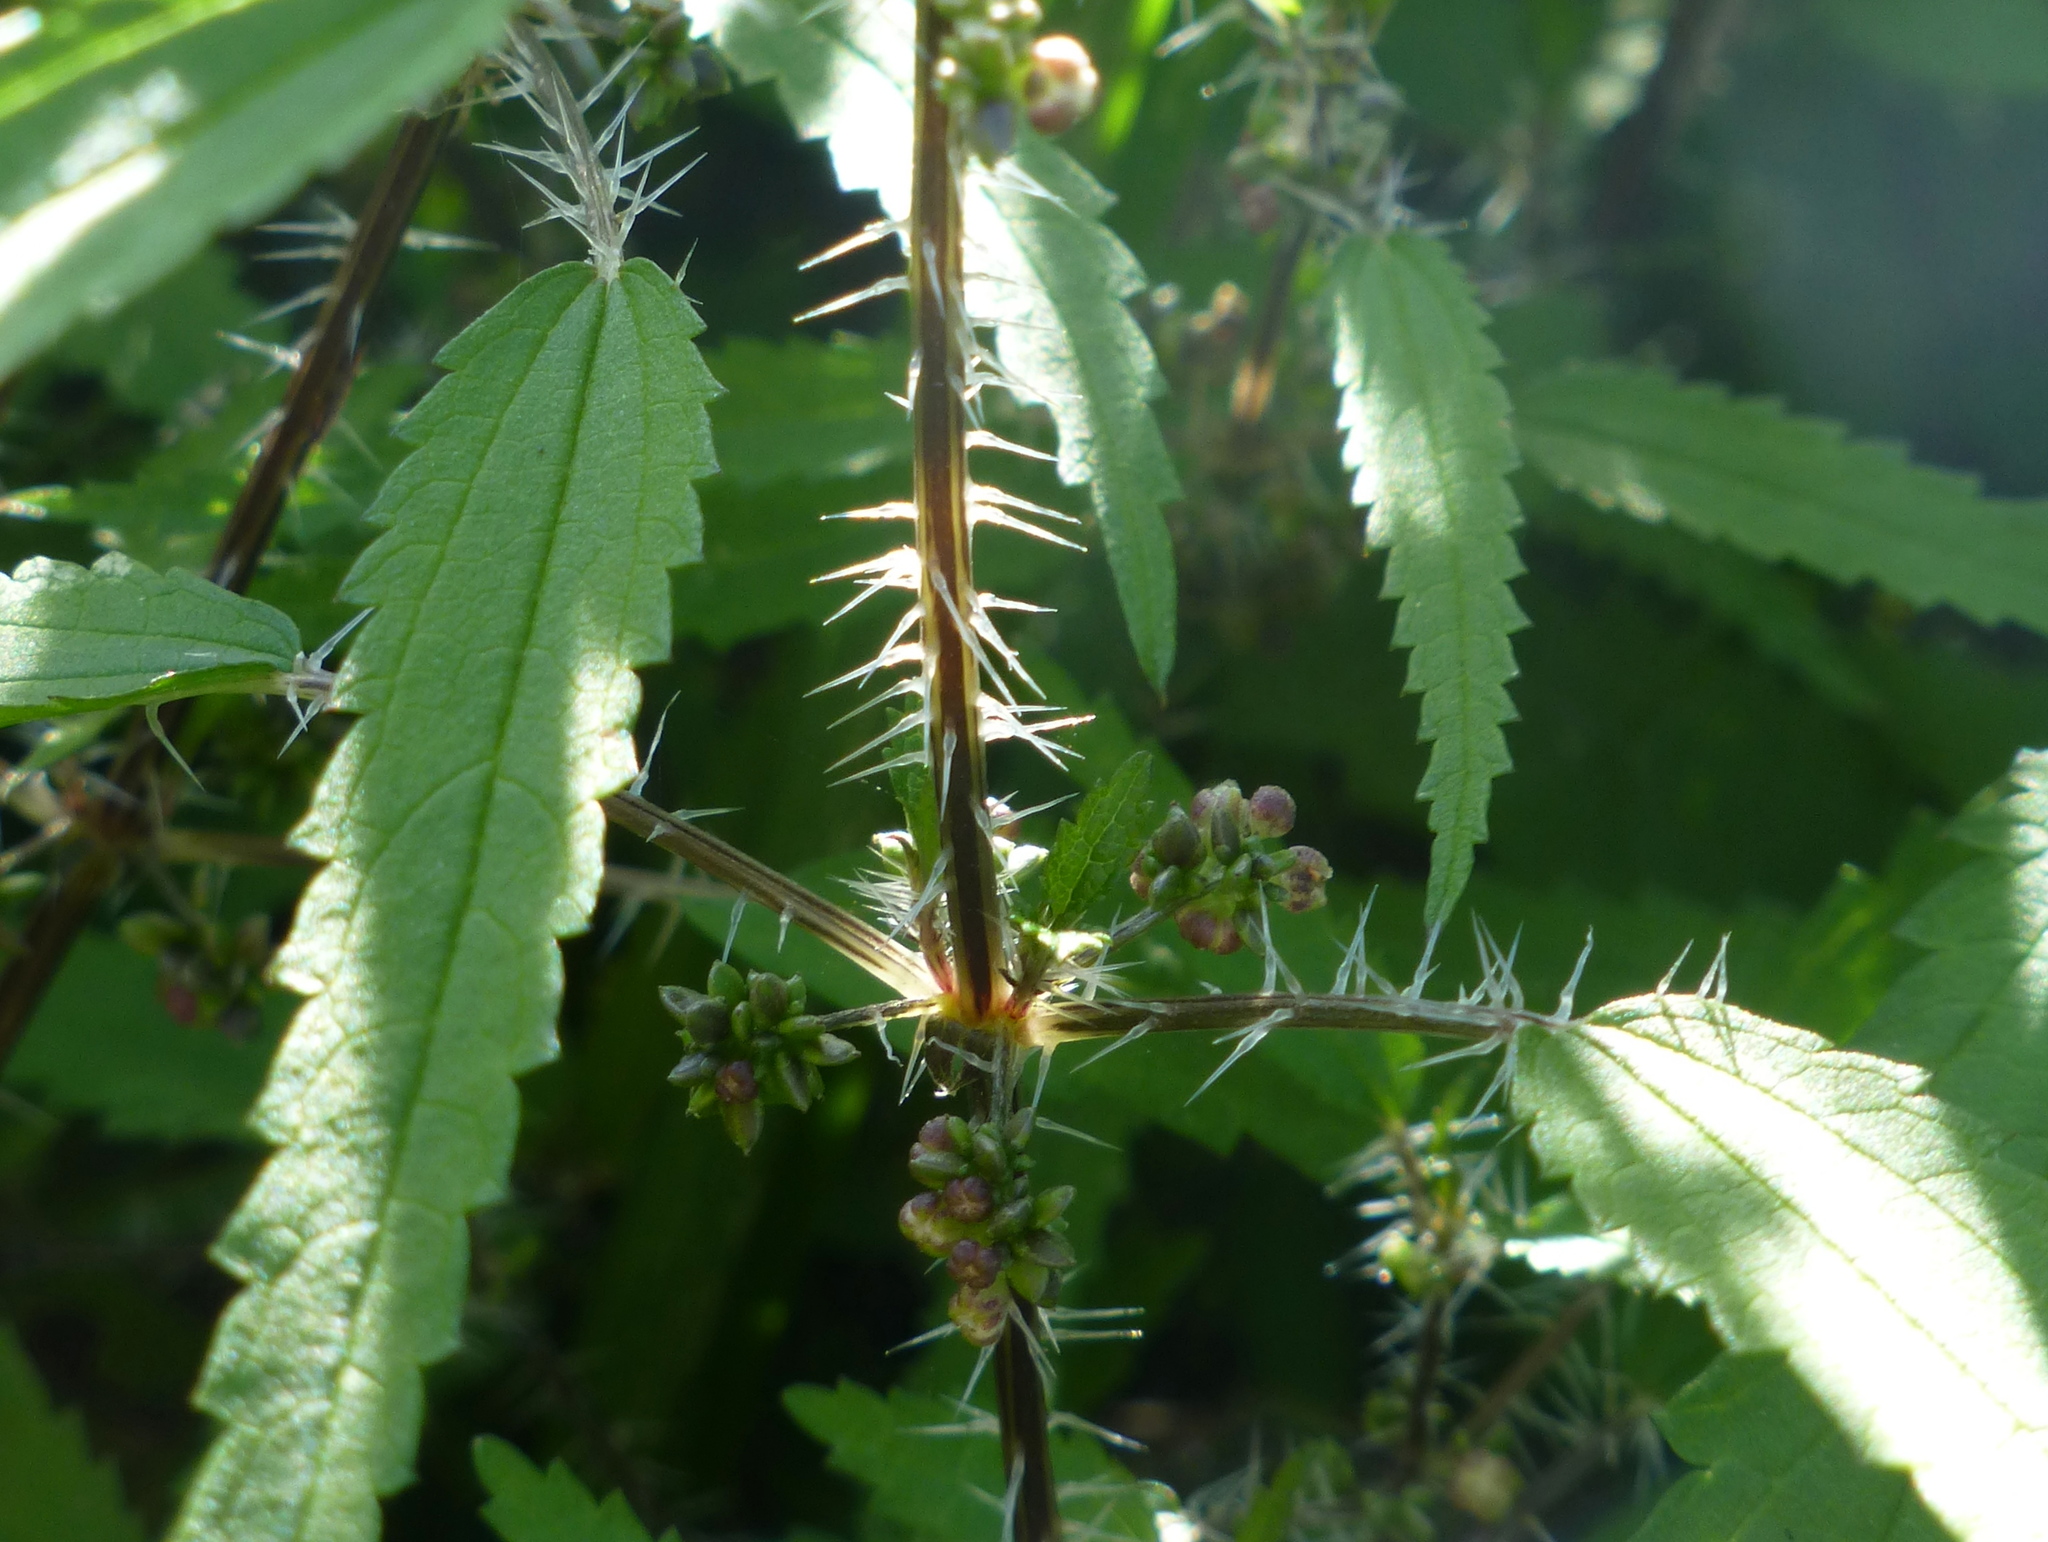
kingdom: Plantae
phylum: Tracheophyta
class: Magnoliopsida
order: Rosales
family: Urticaceae
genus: Urtica
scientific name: Urtica perconfusa
